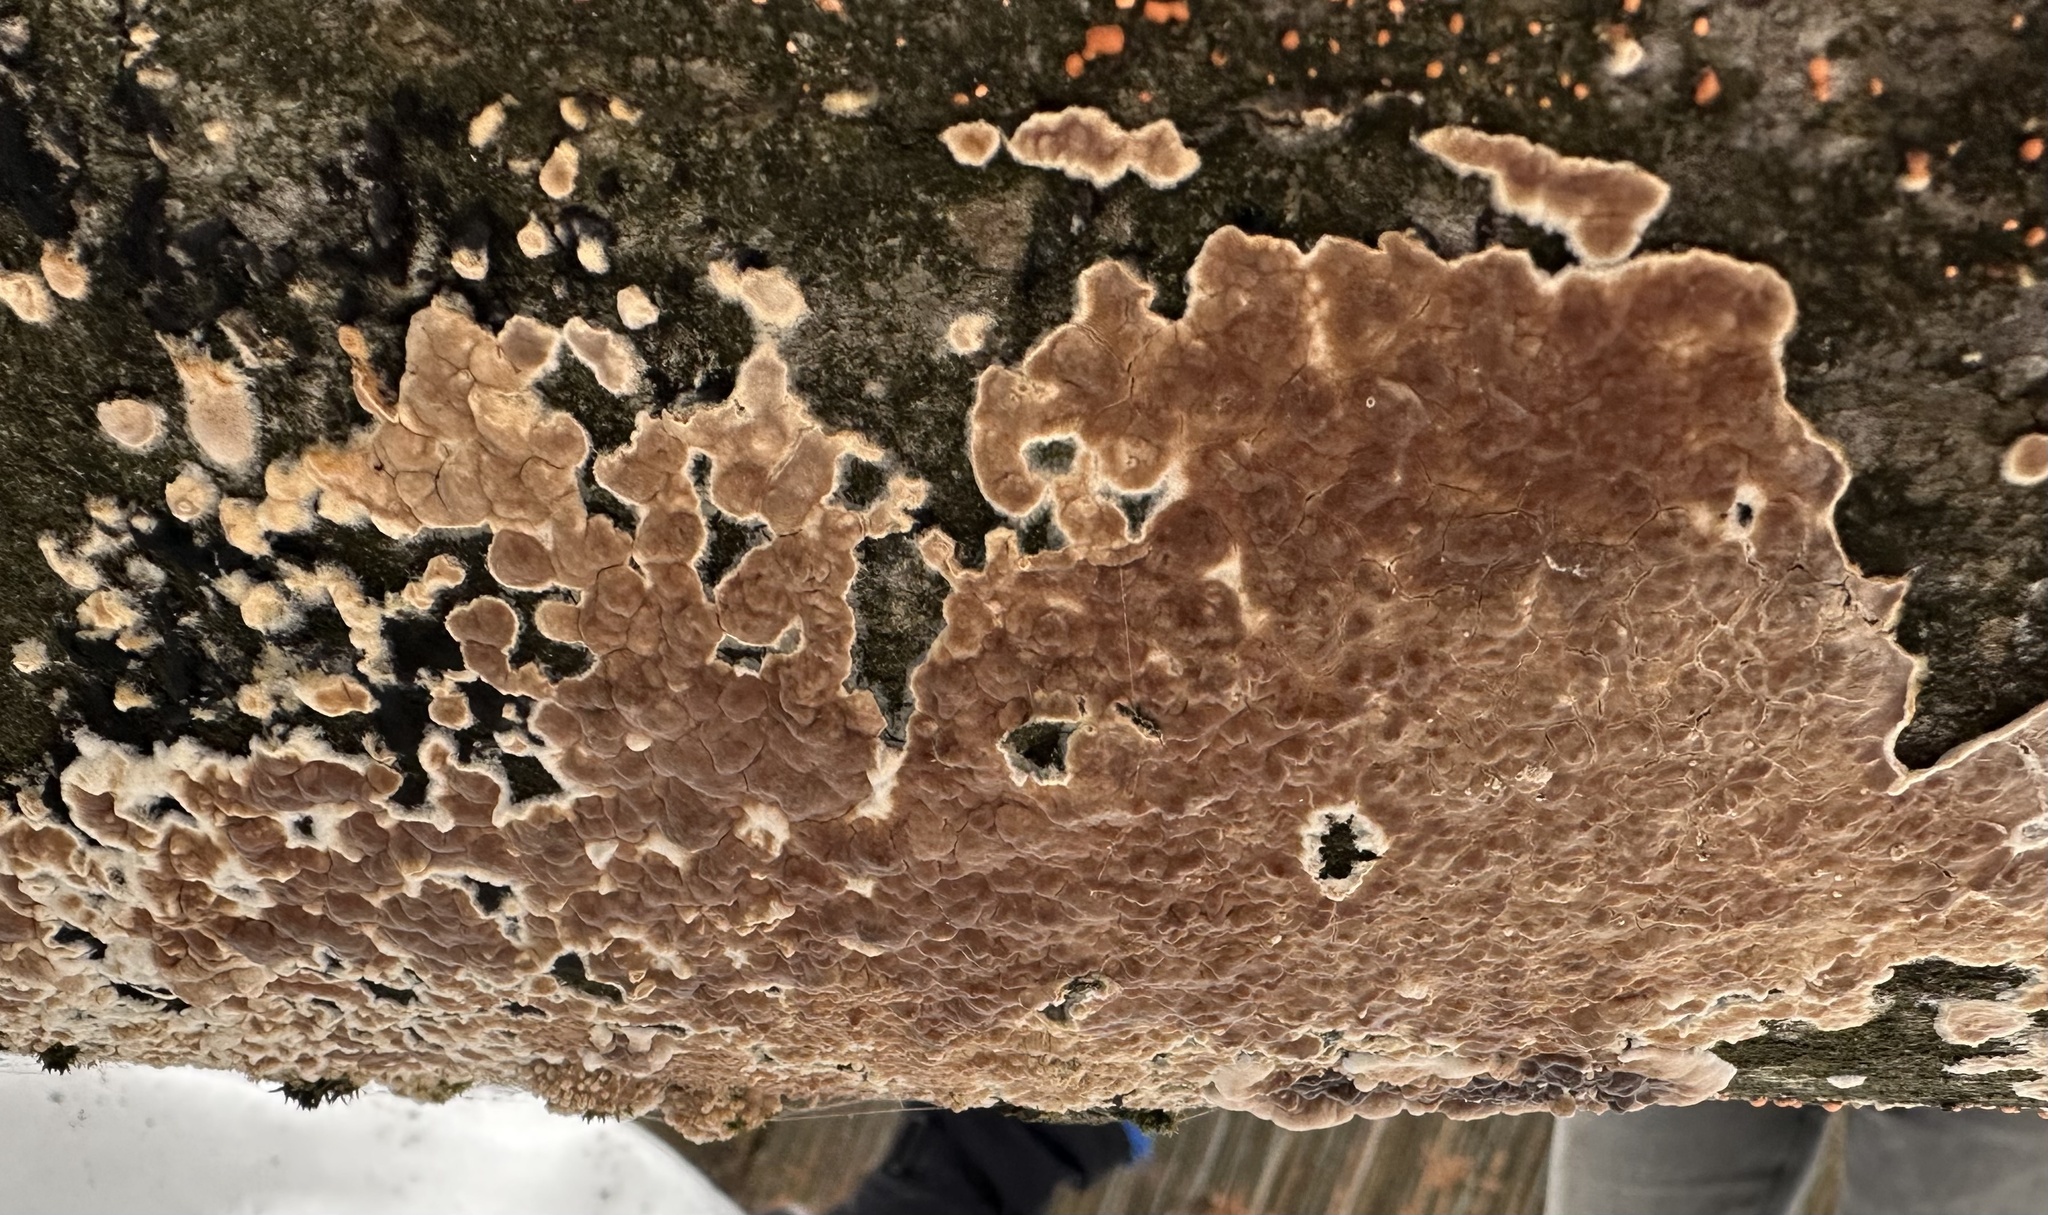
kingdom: Fungi
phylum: Basidiomycota
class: Agaricomycetes
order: Polyporales
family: Steccherinaceae
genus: Steccherinum
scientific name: Steccherinum ochraceum
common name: Ochre spreading tooth
